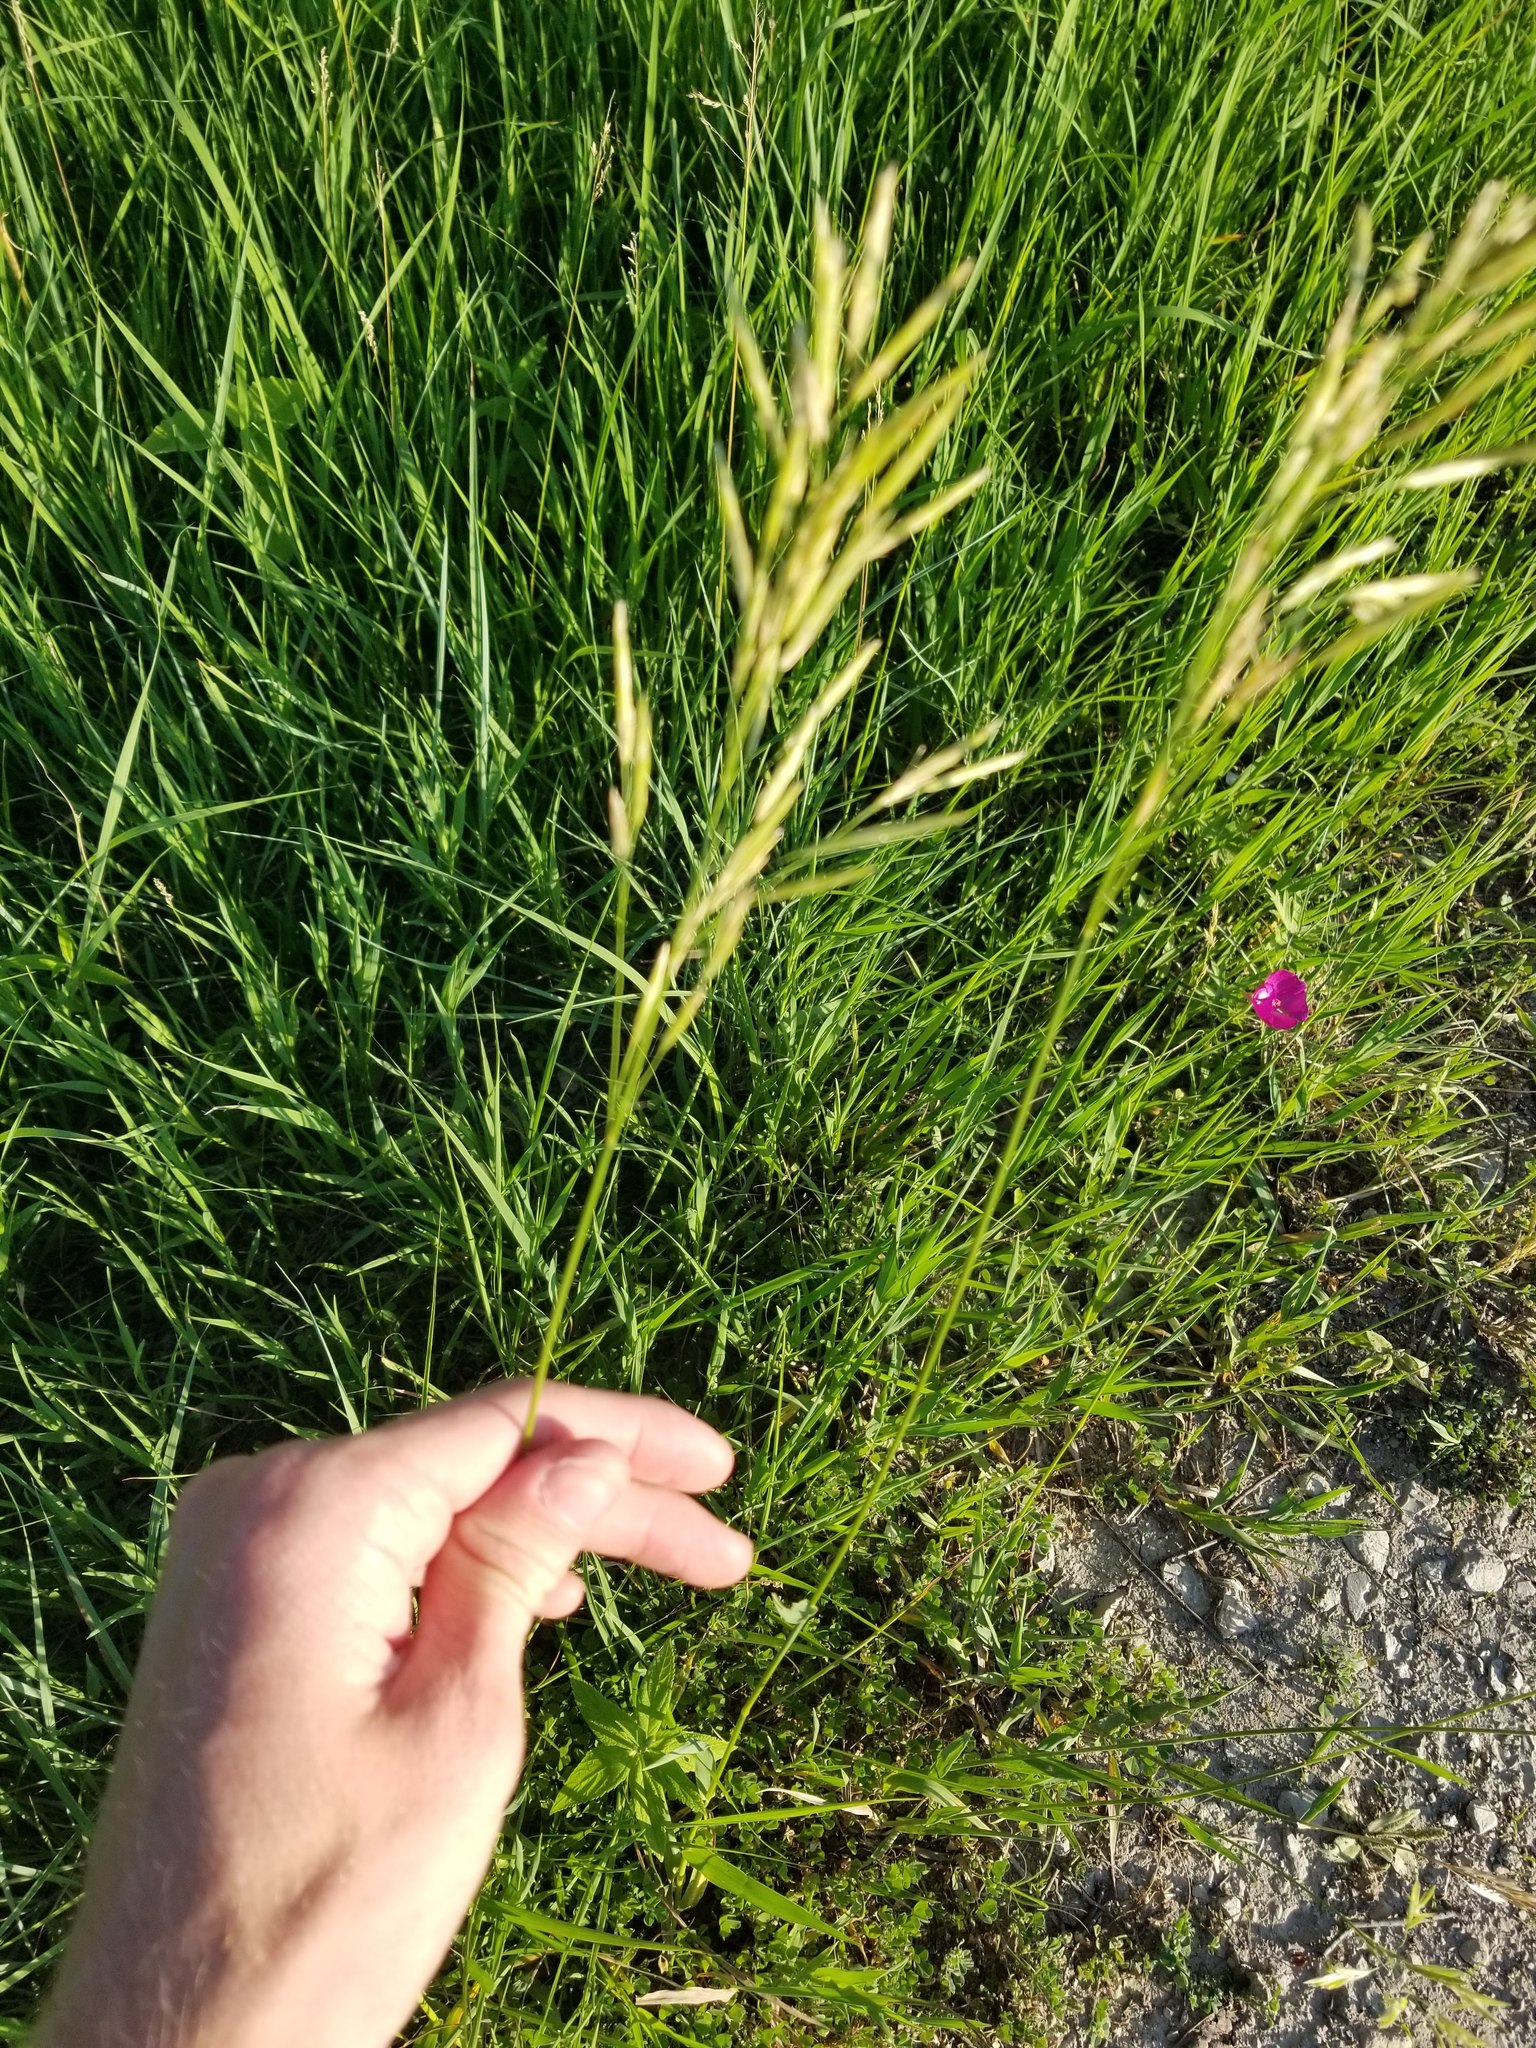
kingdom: Plantae
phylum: Tracheophyta
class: Liliopsida
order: Poales
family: Poaceae
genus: Bromus
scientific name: Bromus inermis
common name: Smooth brome
